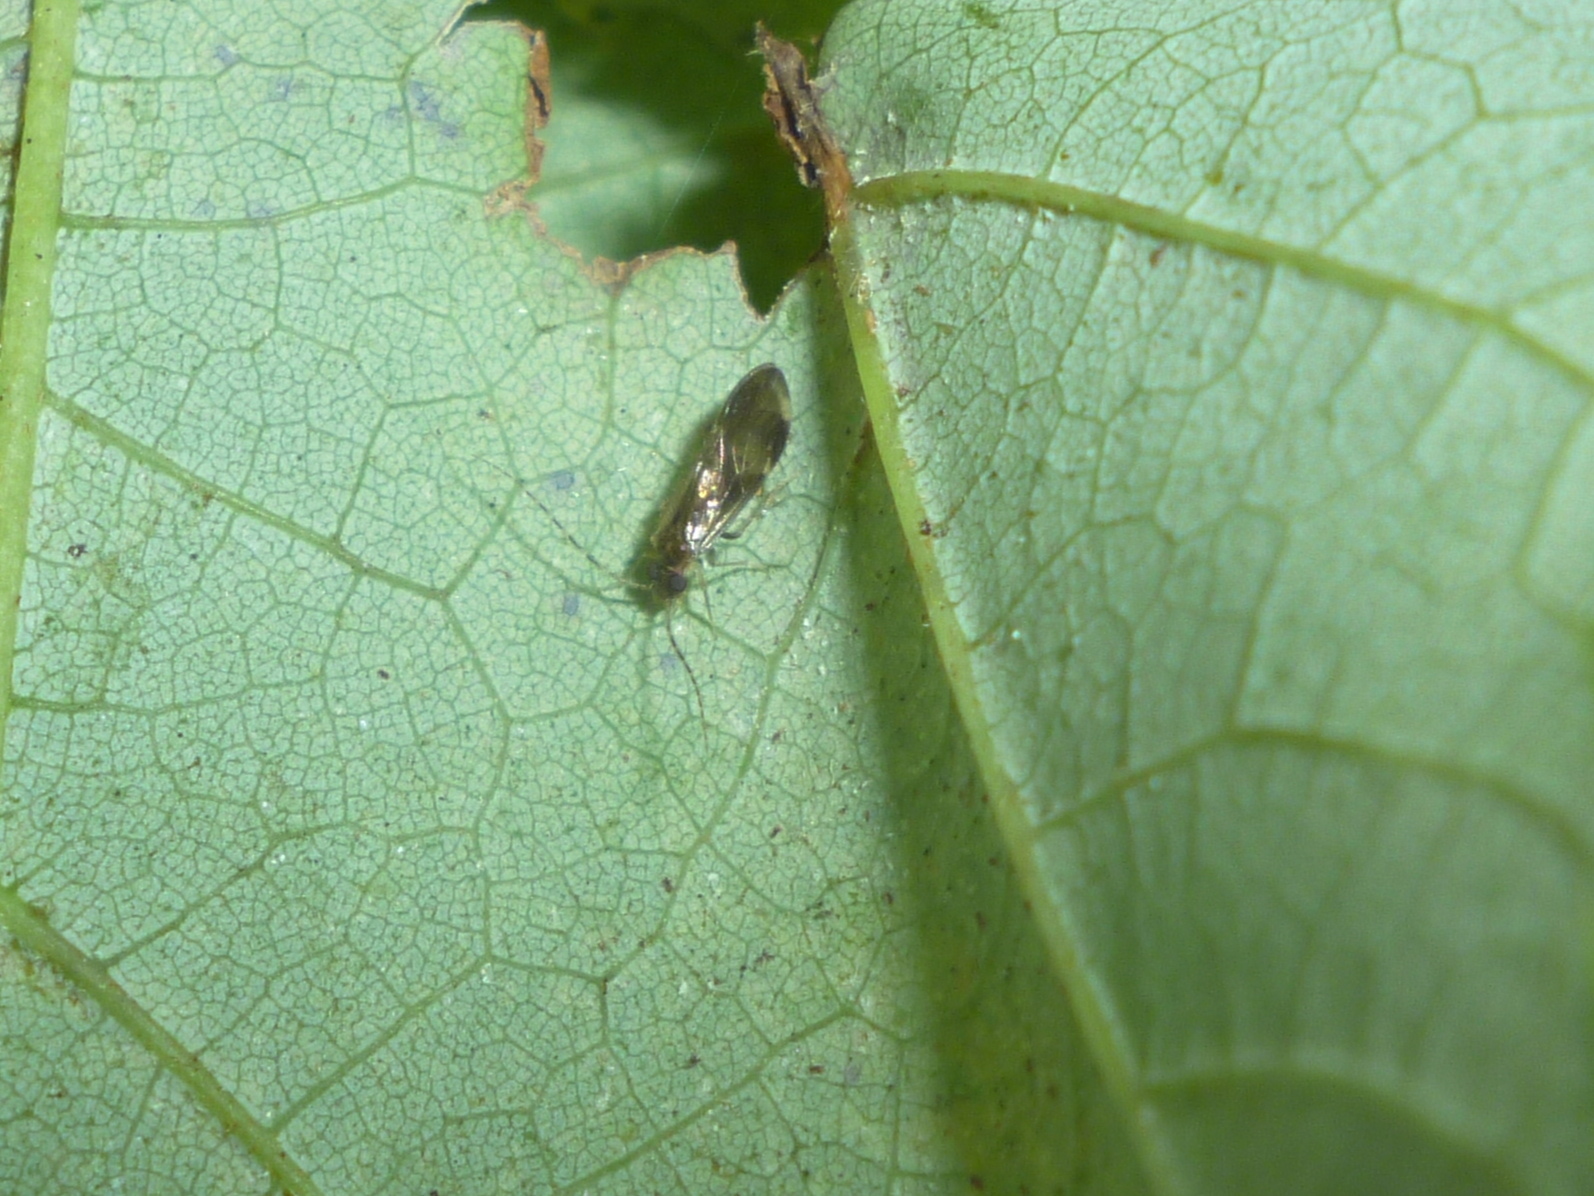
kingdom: Animalia
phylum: Arthropoda
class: Insecta
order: Psocodea
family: Amphipsocidae
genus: Polypsocus
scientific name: Polypsocus corruptus
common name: Corrupt barklouse
